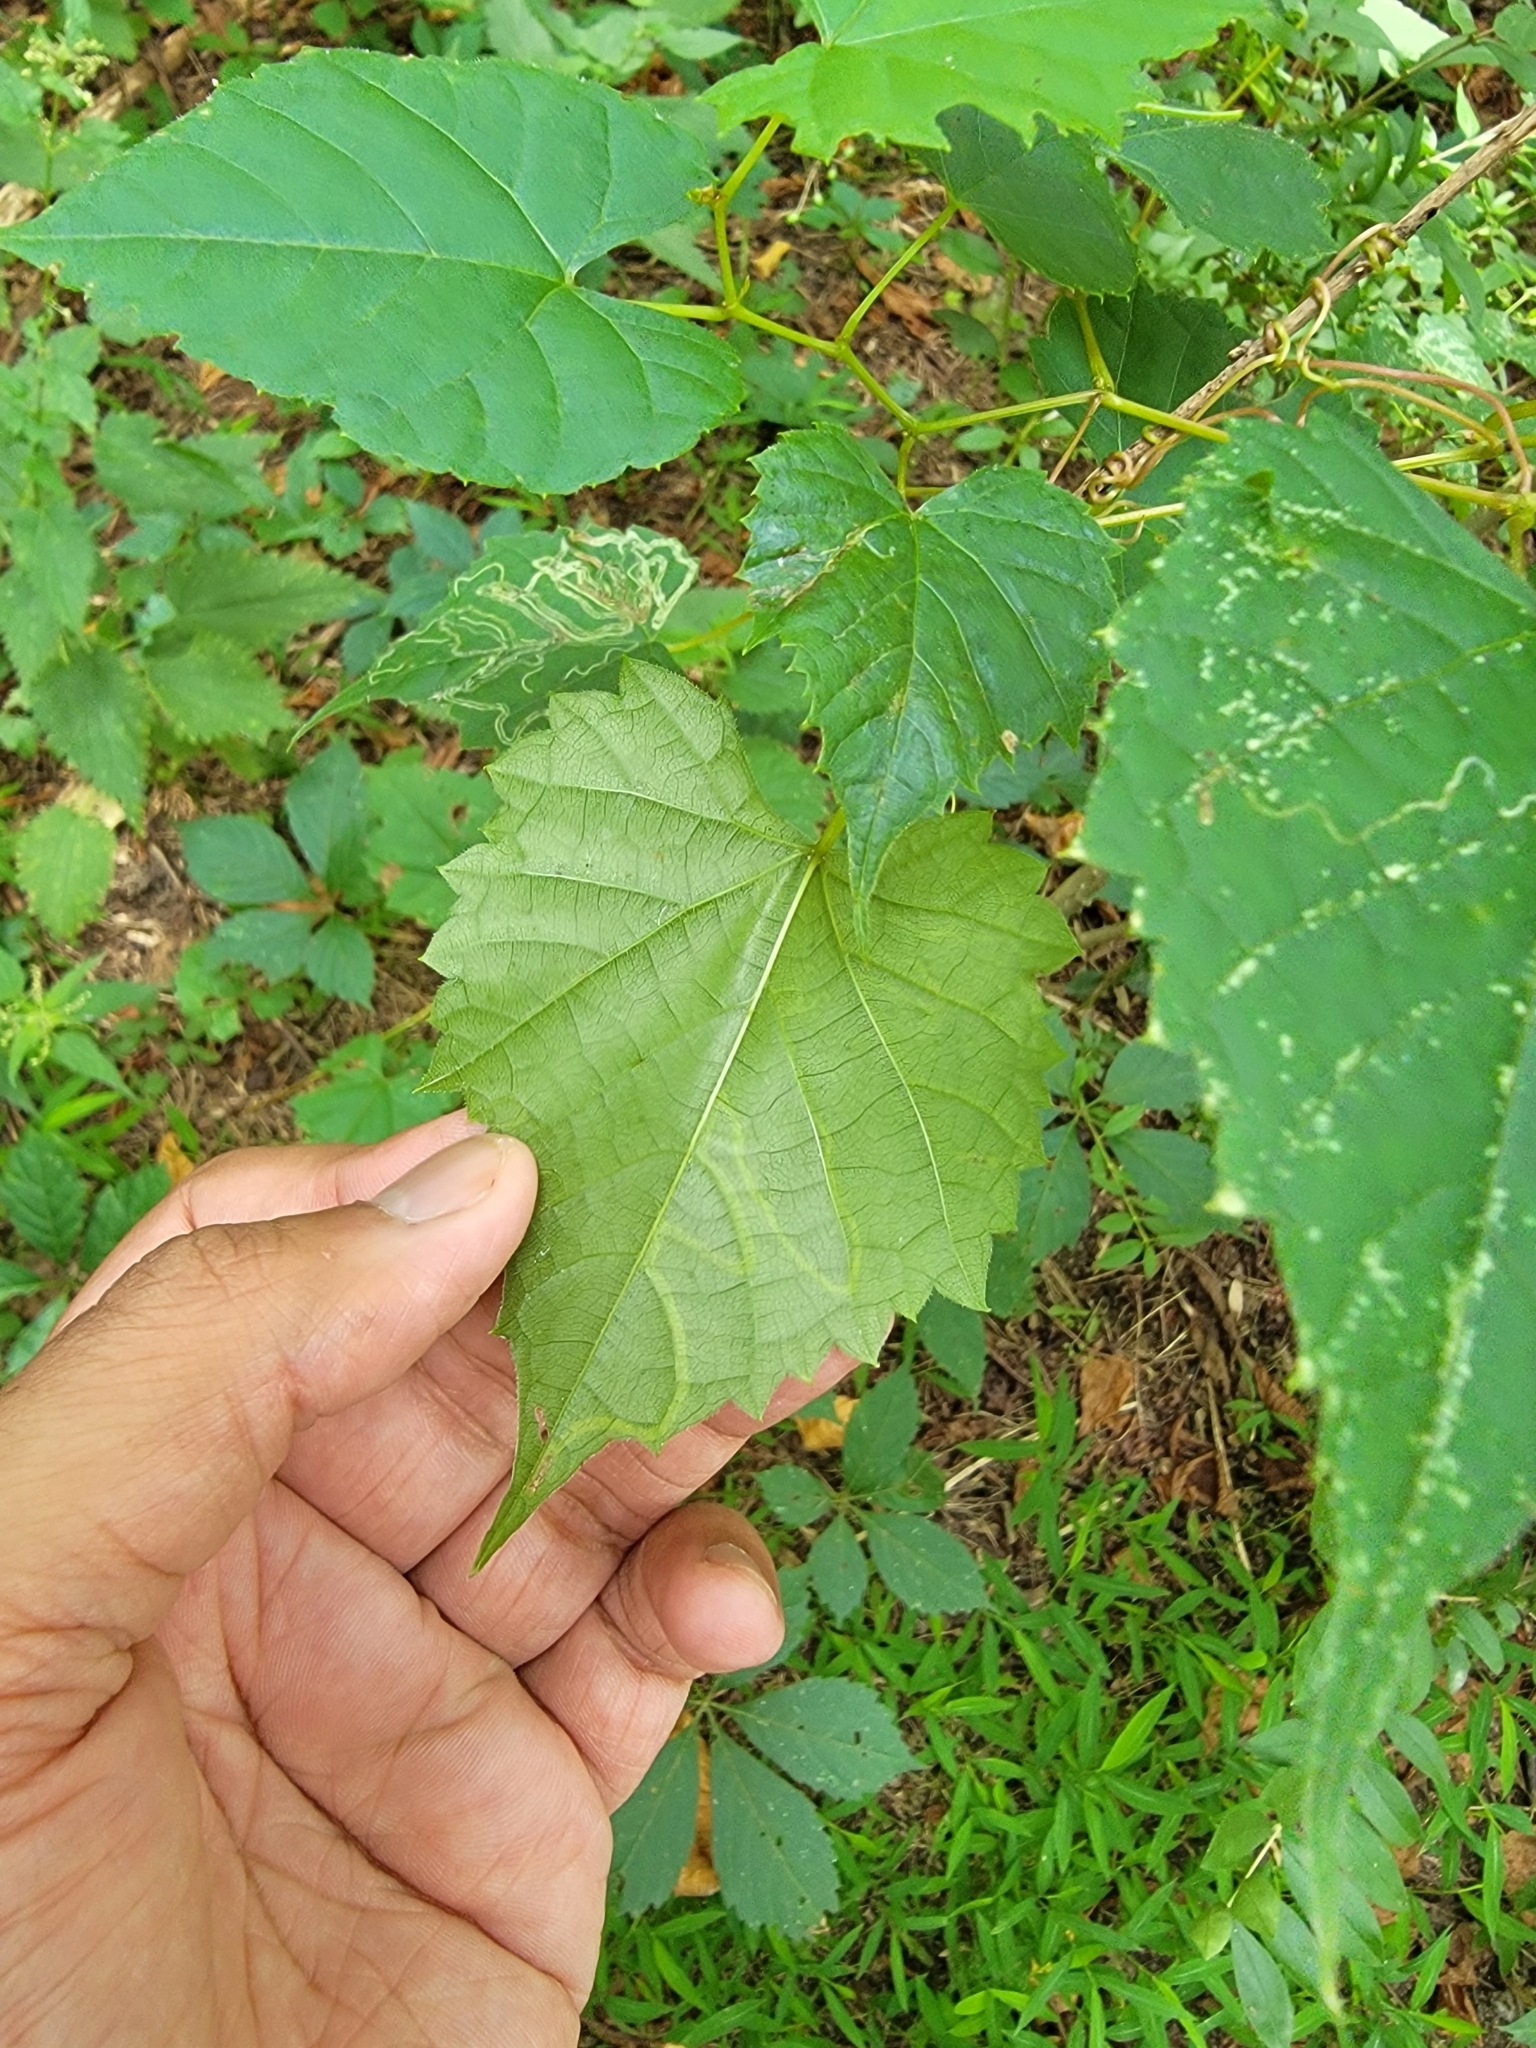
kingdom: Animalia
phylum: Arthropoda
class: Insecta
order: Lepidoptera
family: Gracillariidae
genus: Phyllocnistis
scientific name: Phyllocnistis vitifoliella
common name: Grape leaf-miner moth
